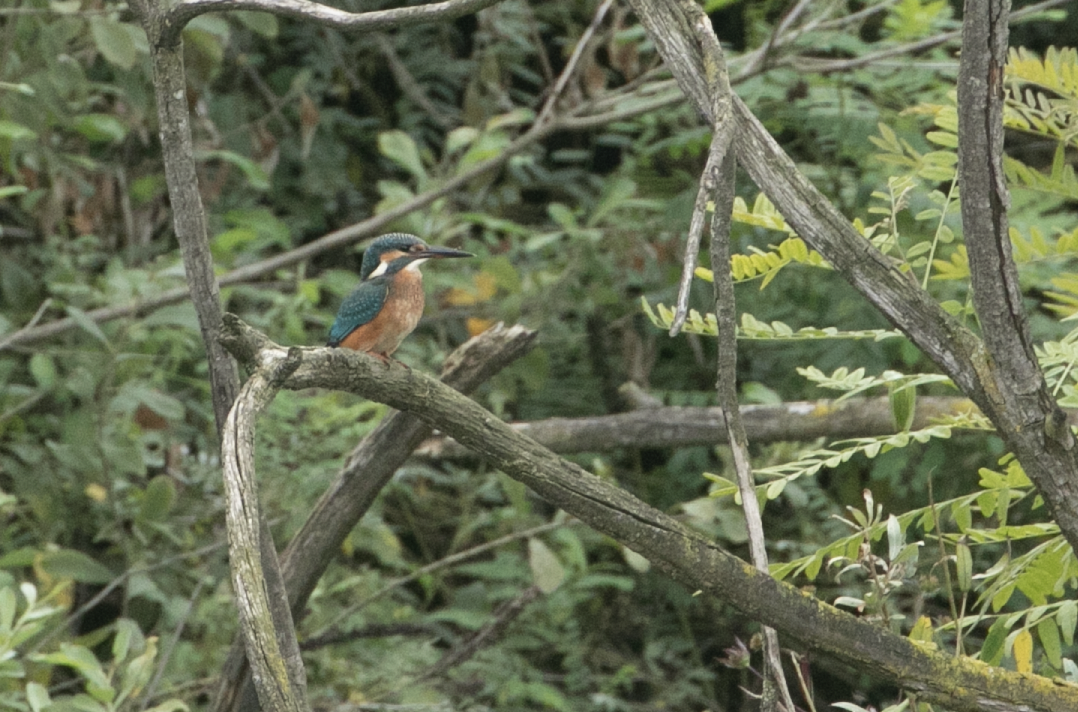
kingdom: Animalia
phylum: Chordata
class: Aves
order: Coraciiformes
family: Alcedinidae
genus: Alcedo
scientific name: Alcedo atthis
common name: Common kingfisher
